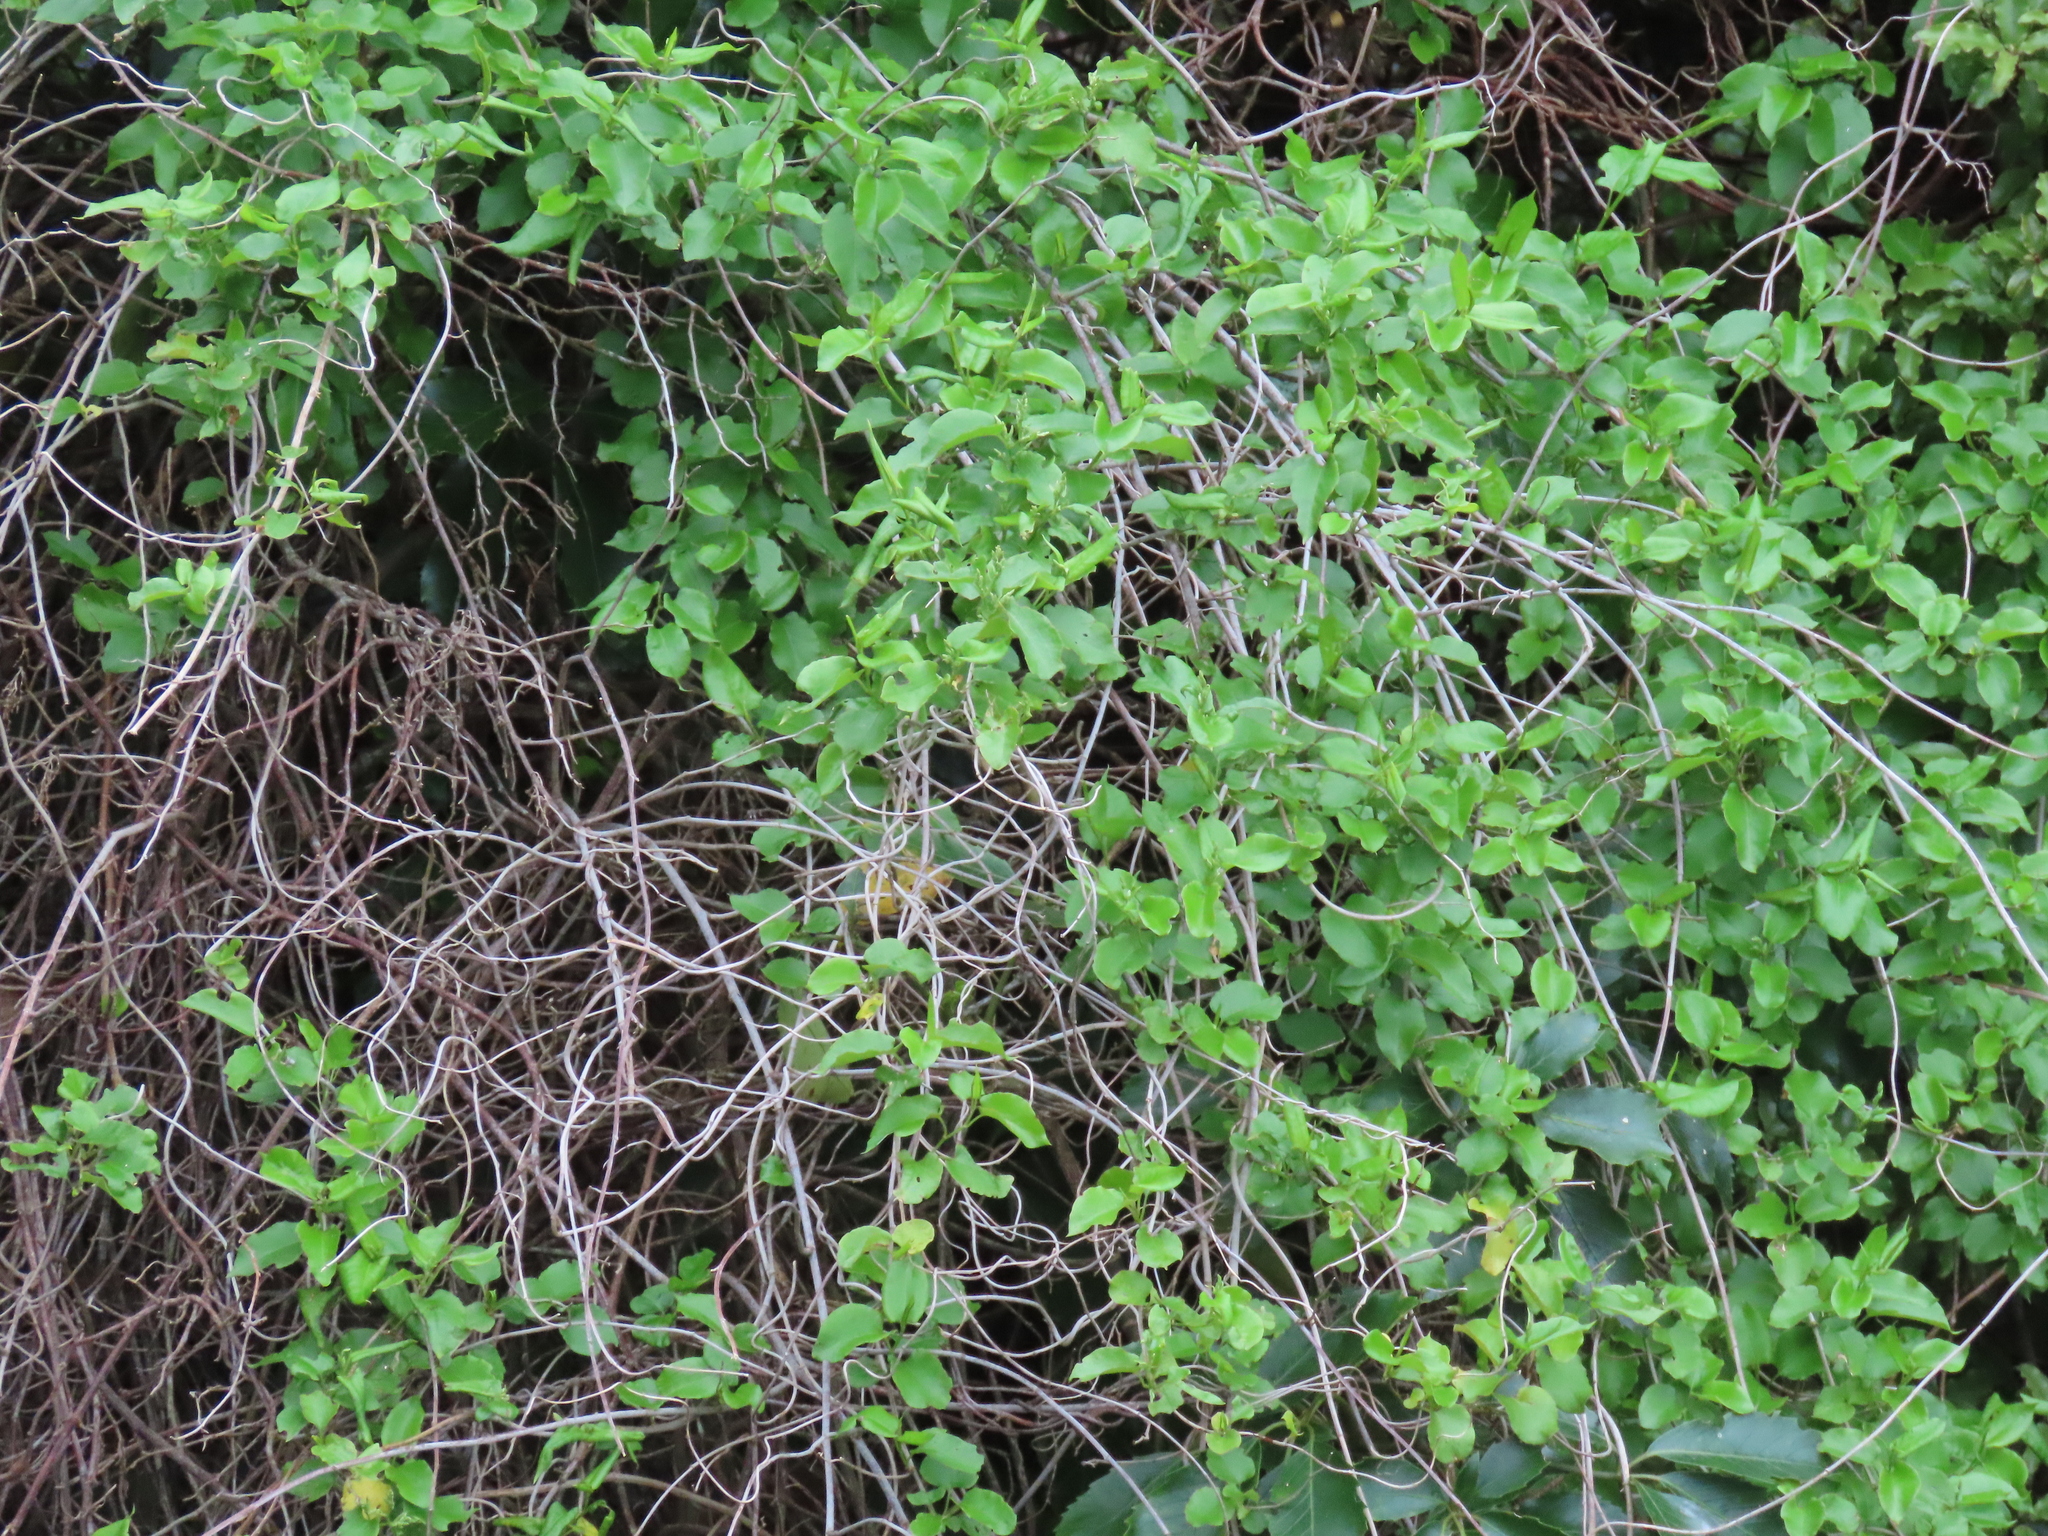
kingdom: Plantae
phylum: Tracheophyta
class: Magnoliopsida
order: Caryophyllales
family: Polygonaceae
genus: Muehlenbeckia
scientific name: Muehlenbeckia australis
